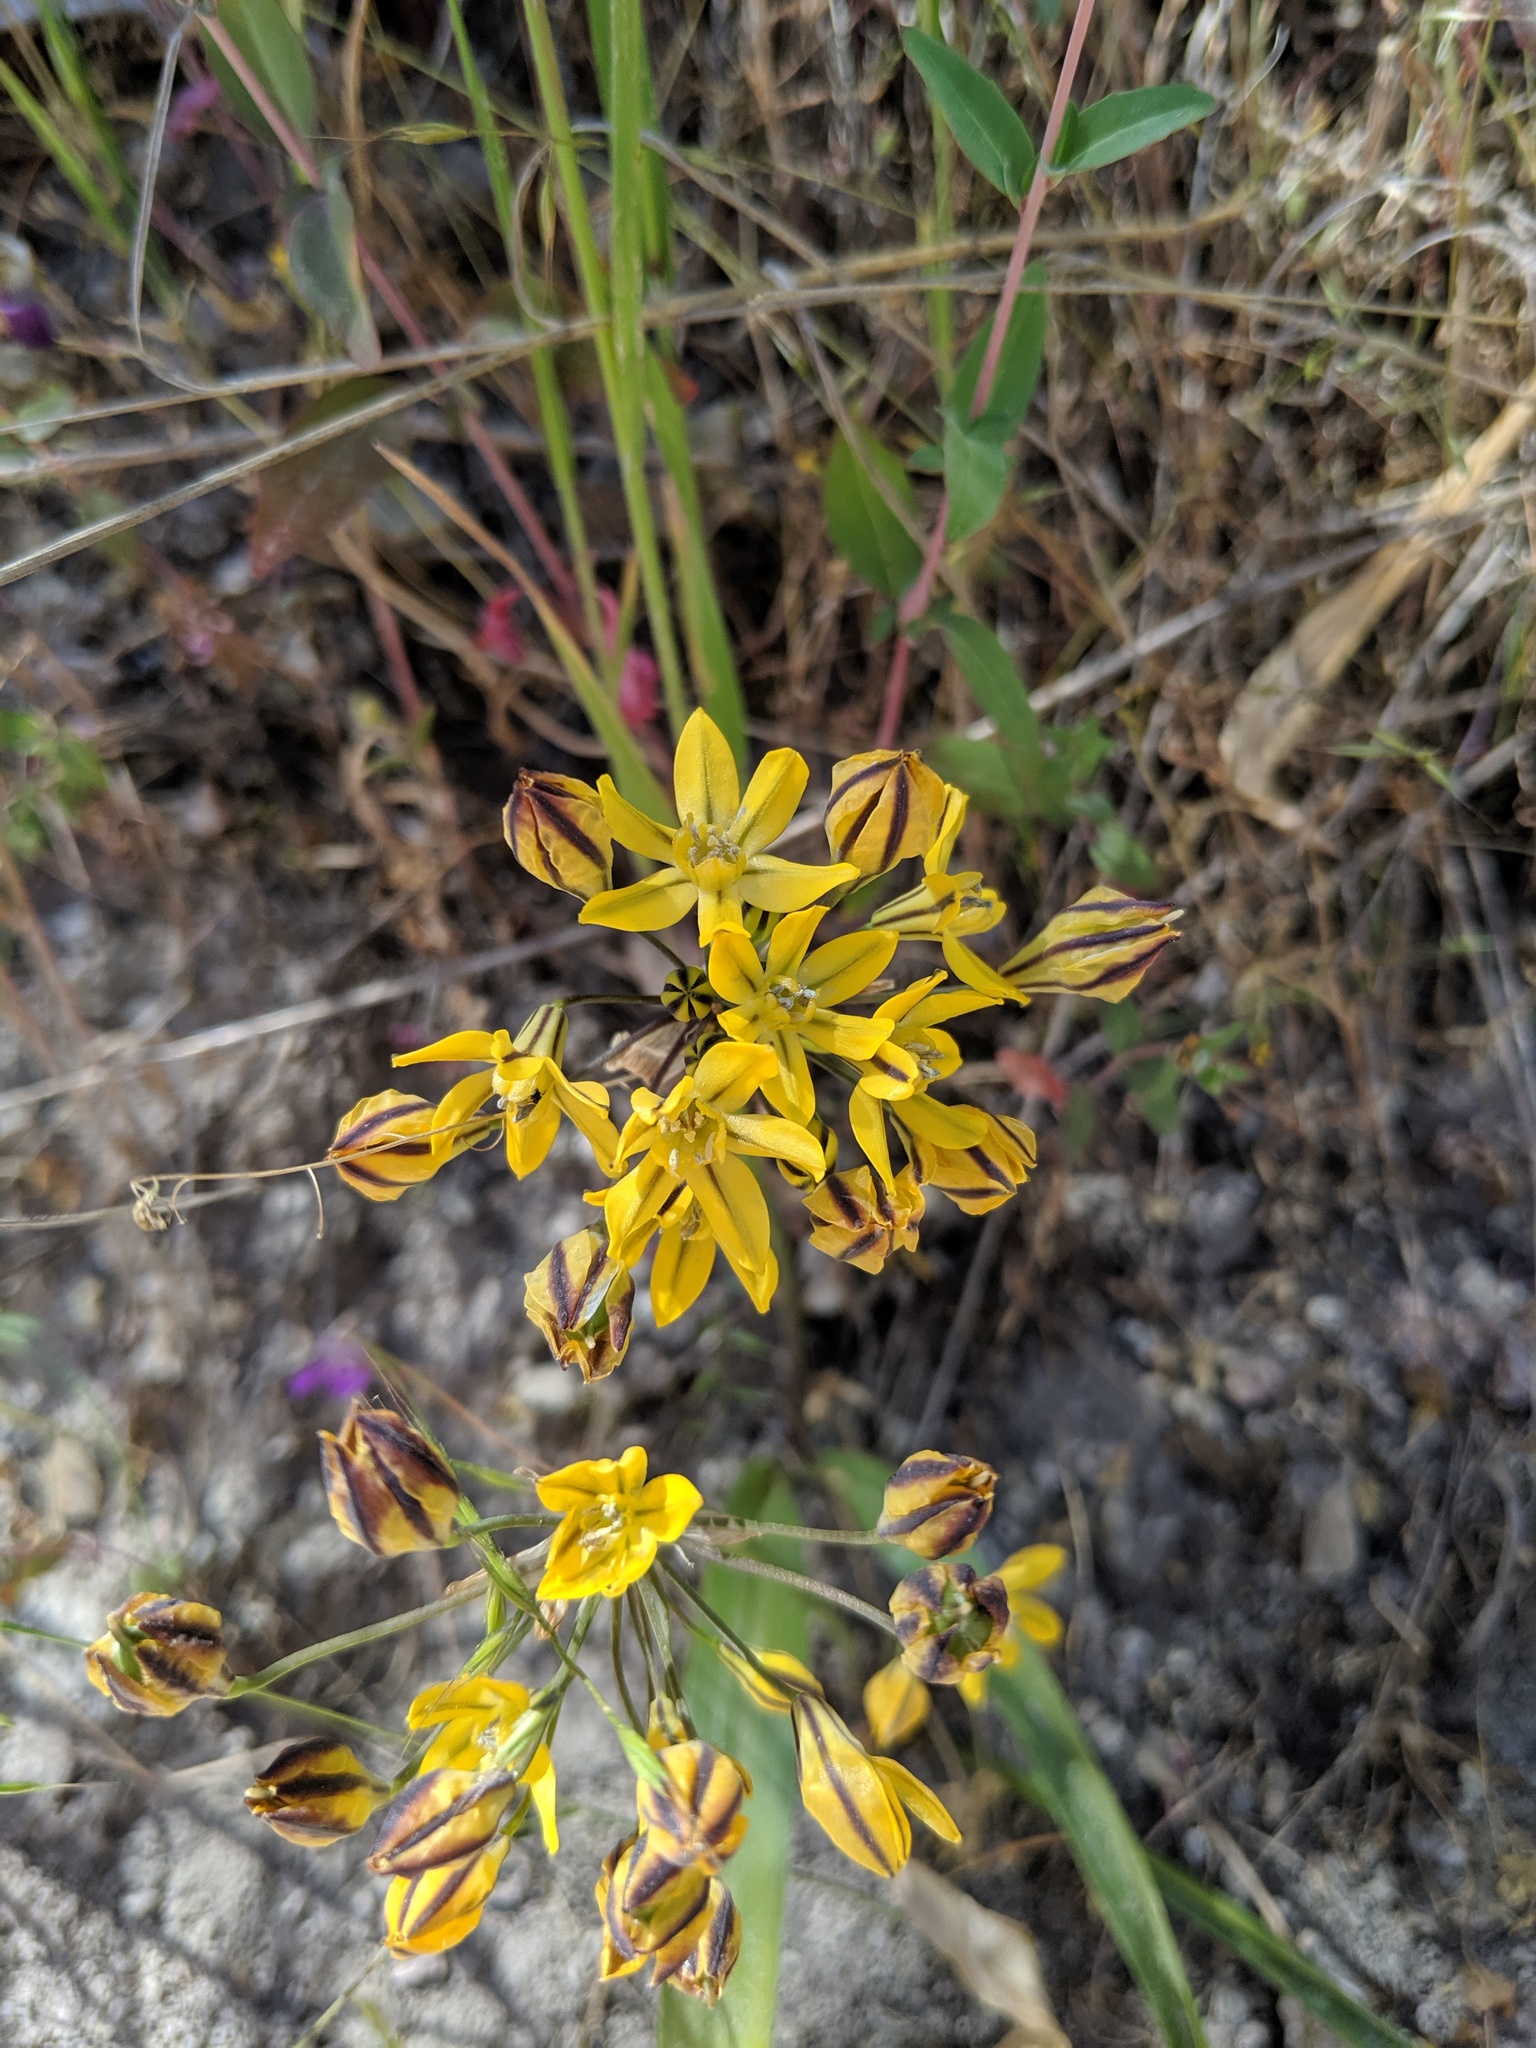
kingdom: Plantae
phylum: Tracheophyta
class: Liliopsida
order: Asparagales
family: Asparagaceae
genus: Triteleia
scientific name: Triteleia lugens
